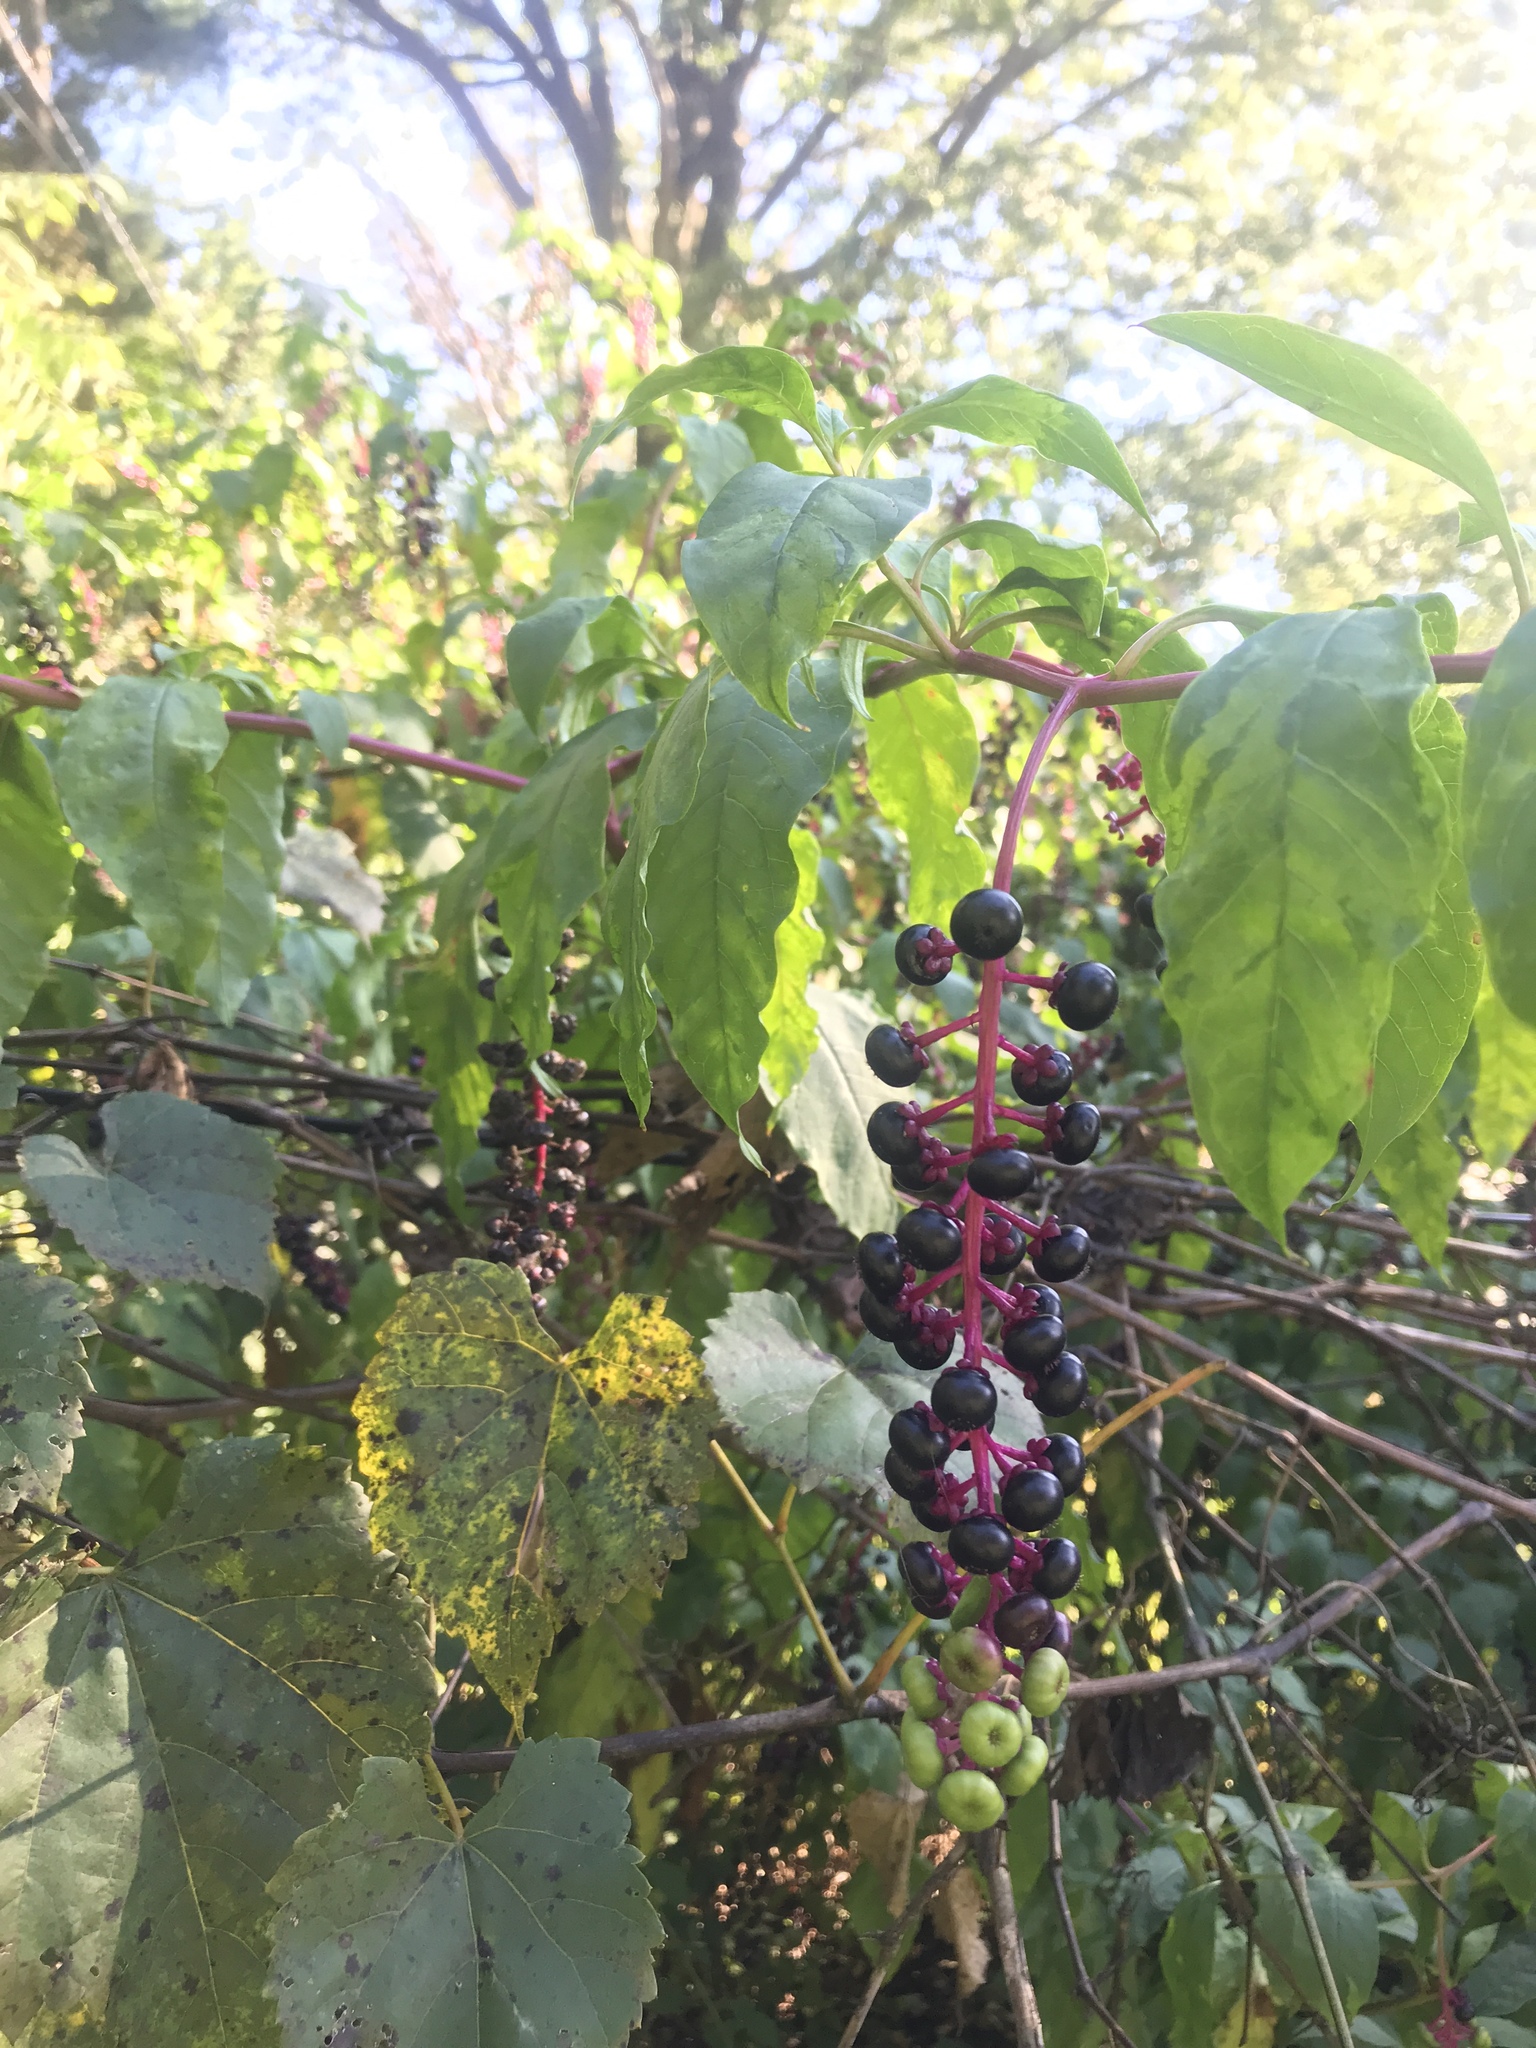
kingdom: Plantae
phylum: Tracheophyta
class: Magnoliopsida
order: Caryophyllales
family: Phytolaccaceae
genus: Phytolacca
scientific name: Phytolacca americana
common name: American pokeweed
